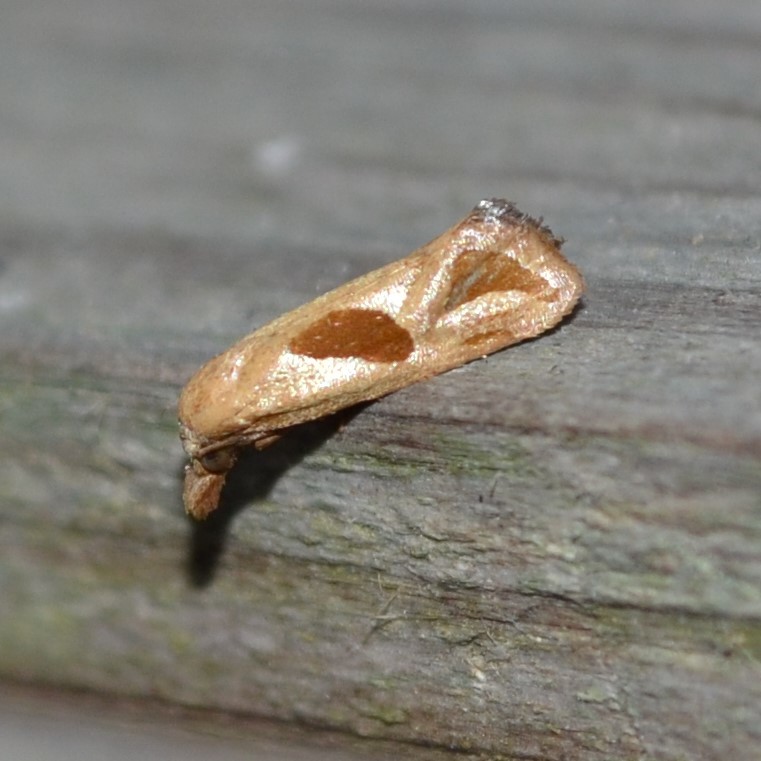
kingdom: Animalia
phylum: Arthropoda
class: Insecta
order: Lepidoptera
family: Tortricidae
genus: Eugnosta
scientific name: Eugnosta bimaculana
